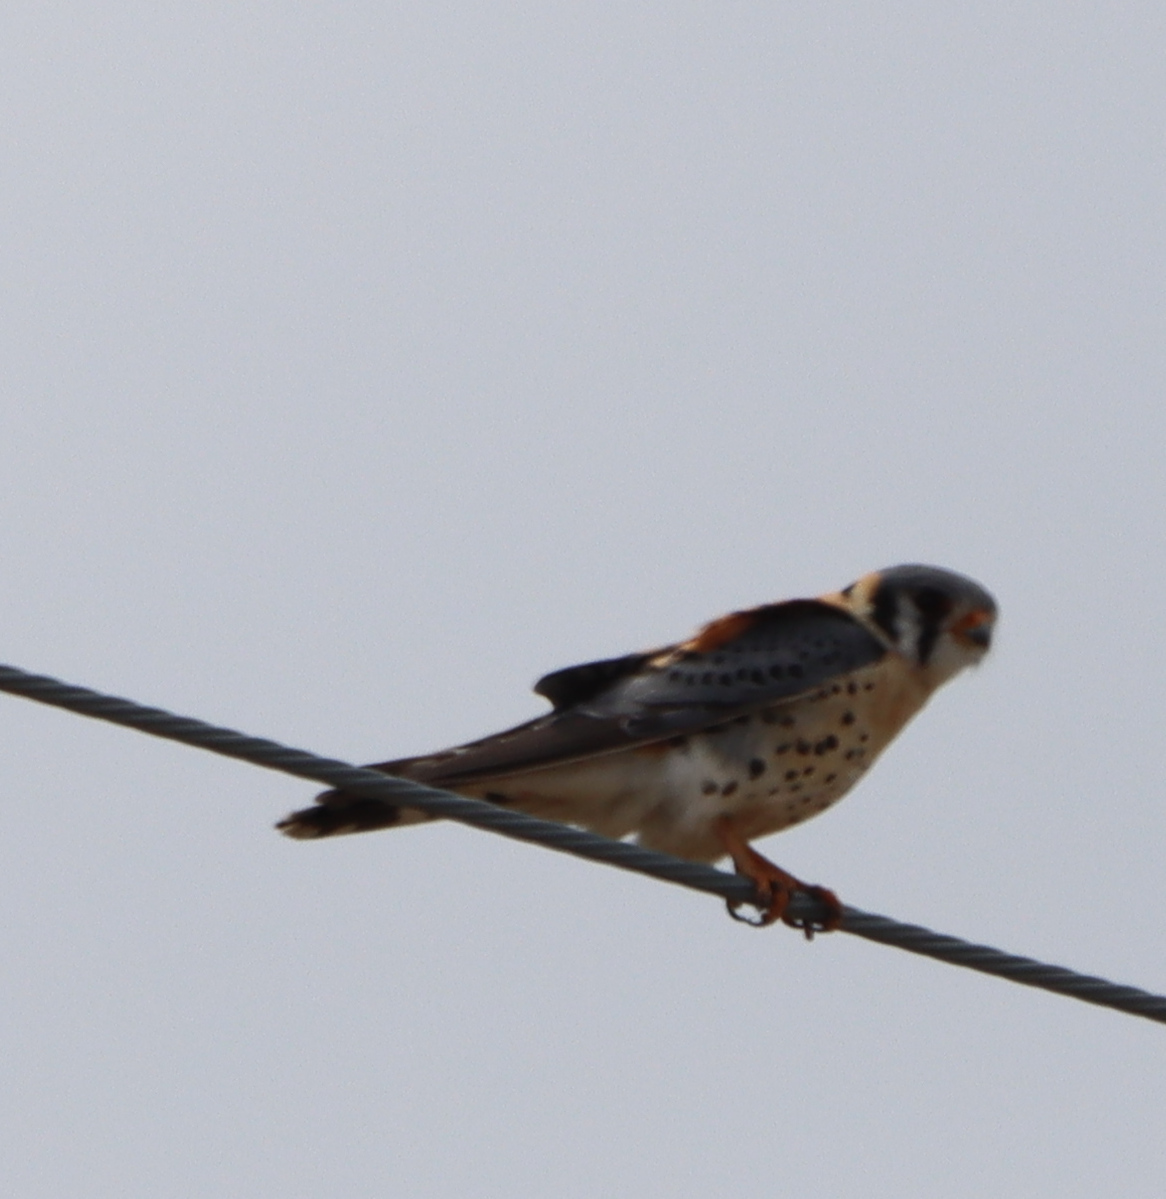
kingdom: Animalia
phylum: Chordata
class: Aves
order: Falconiformes
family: Falconidae
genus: Falco
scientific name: Falco sparverius
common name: American kestrel
